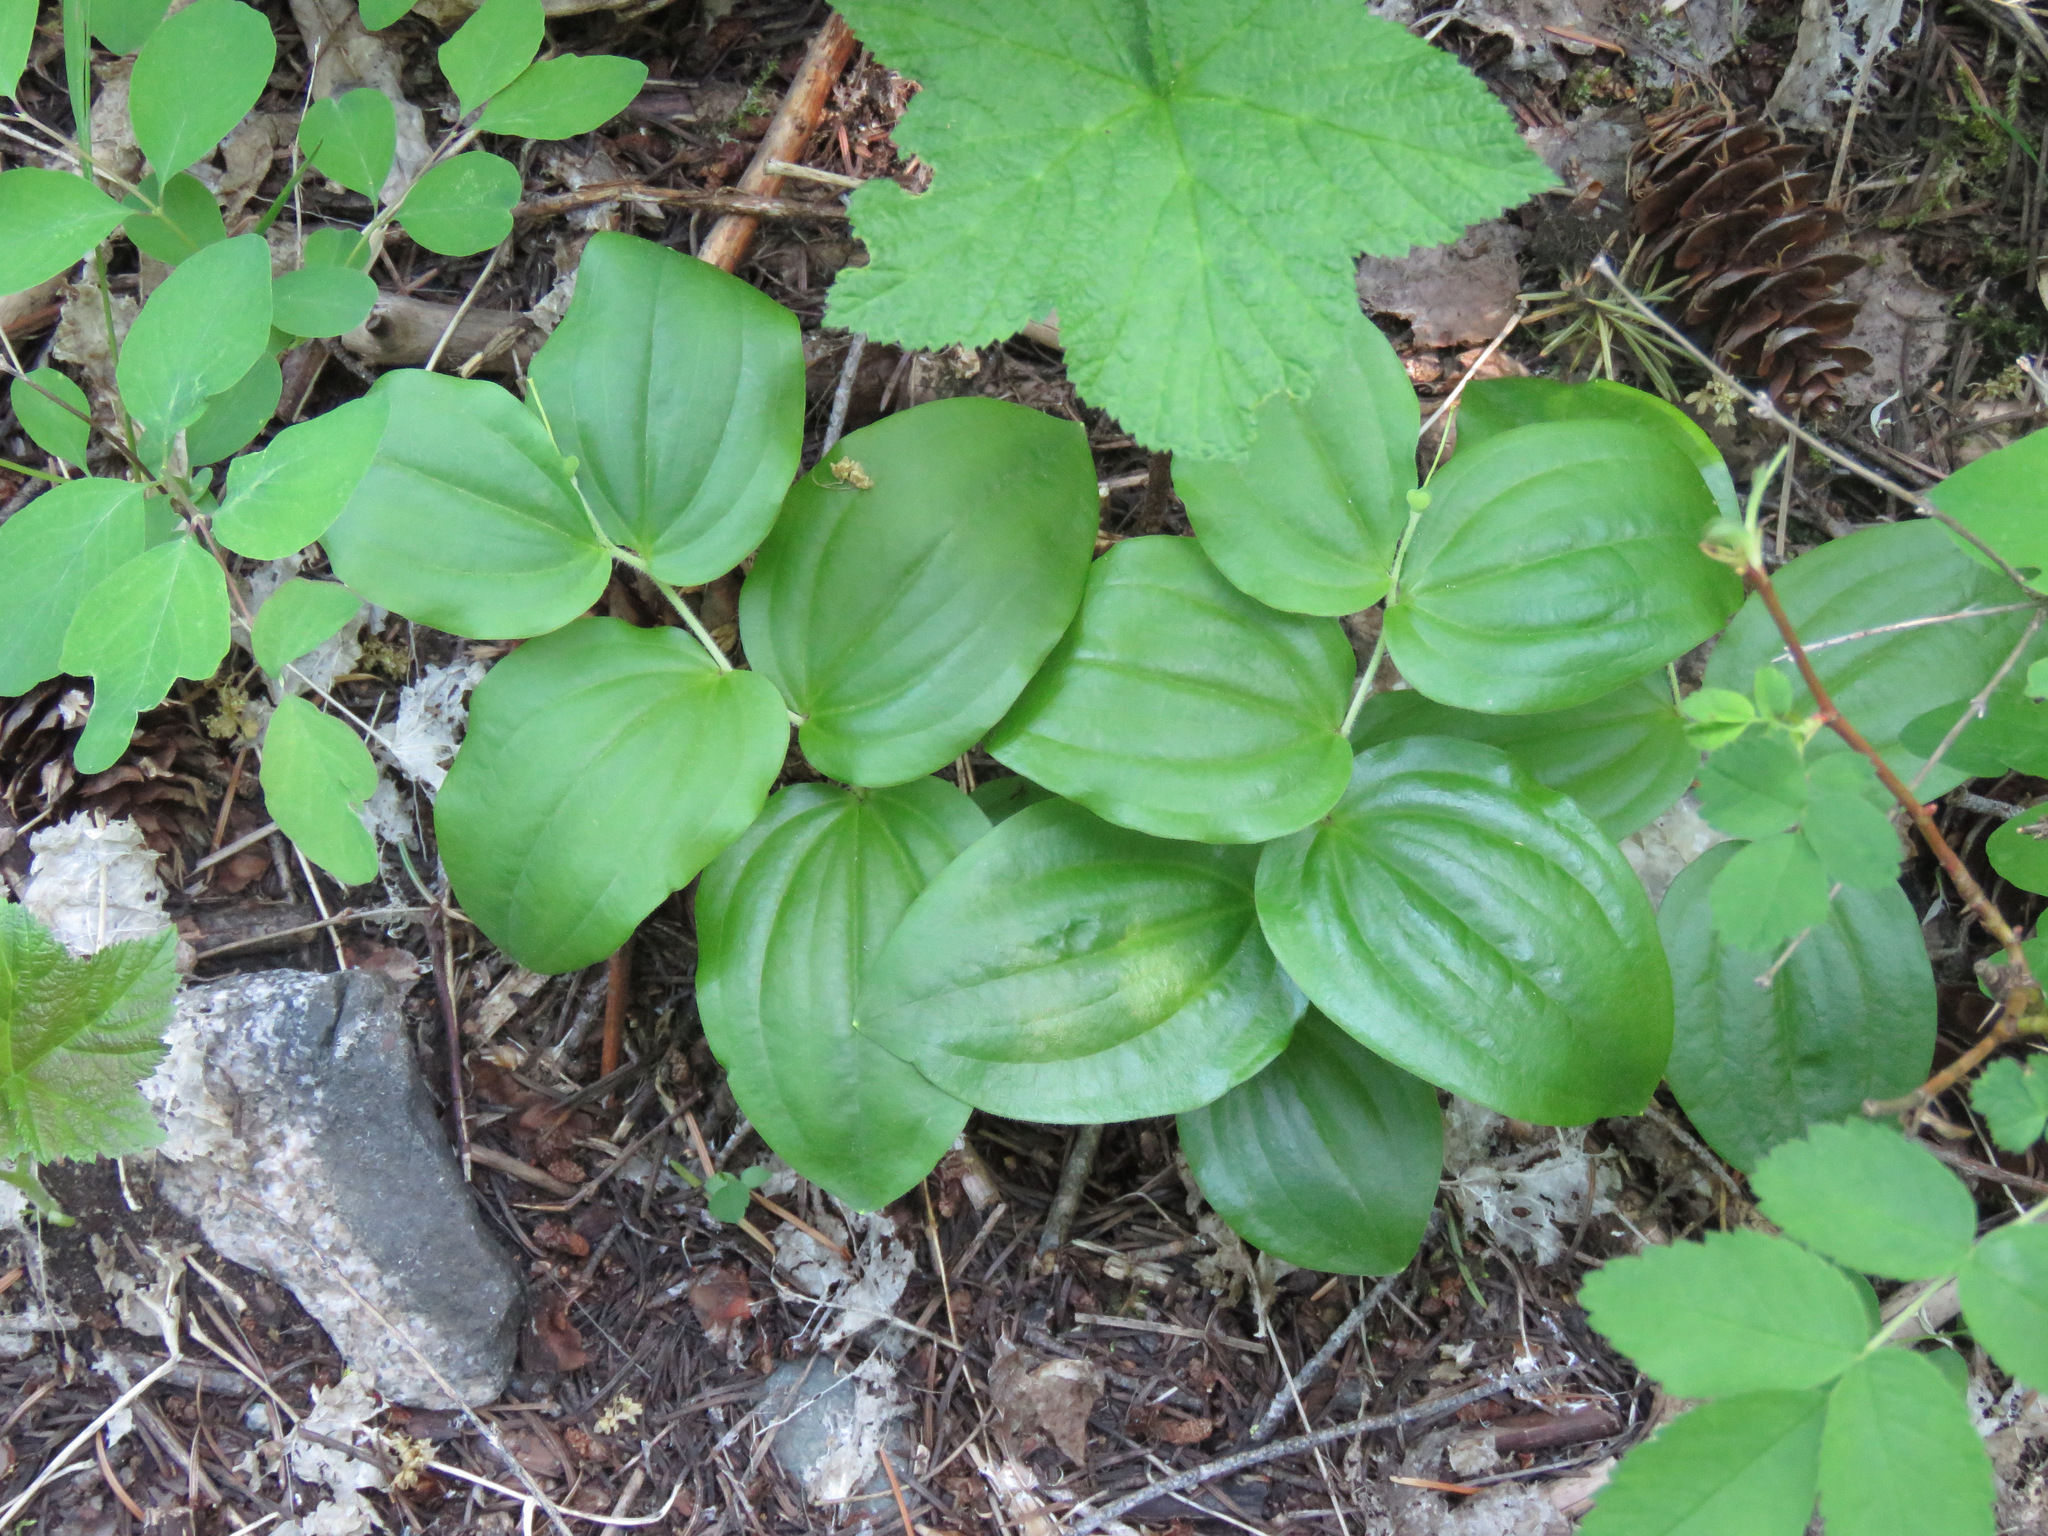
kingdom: Plantae
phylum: Tracheophyta
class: Liliopsida
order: Liliales
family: Liliaceae
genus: Prosartes
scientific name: Prosartes trachycarpa
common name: Rough-fruit fairy-bells
